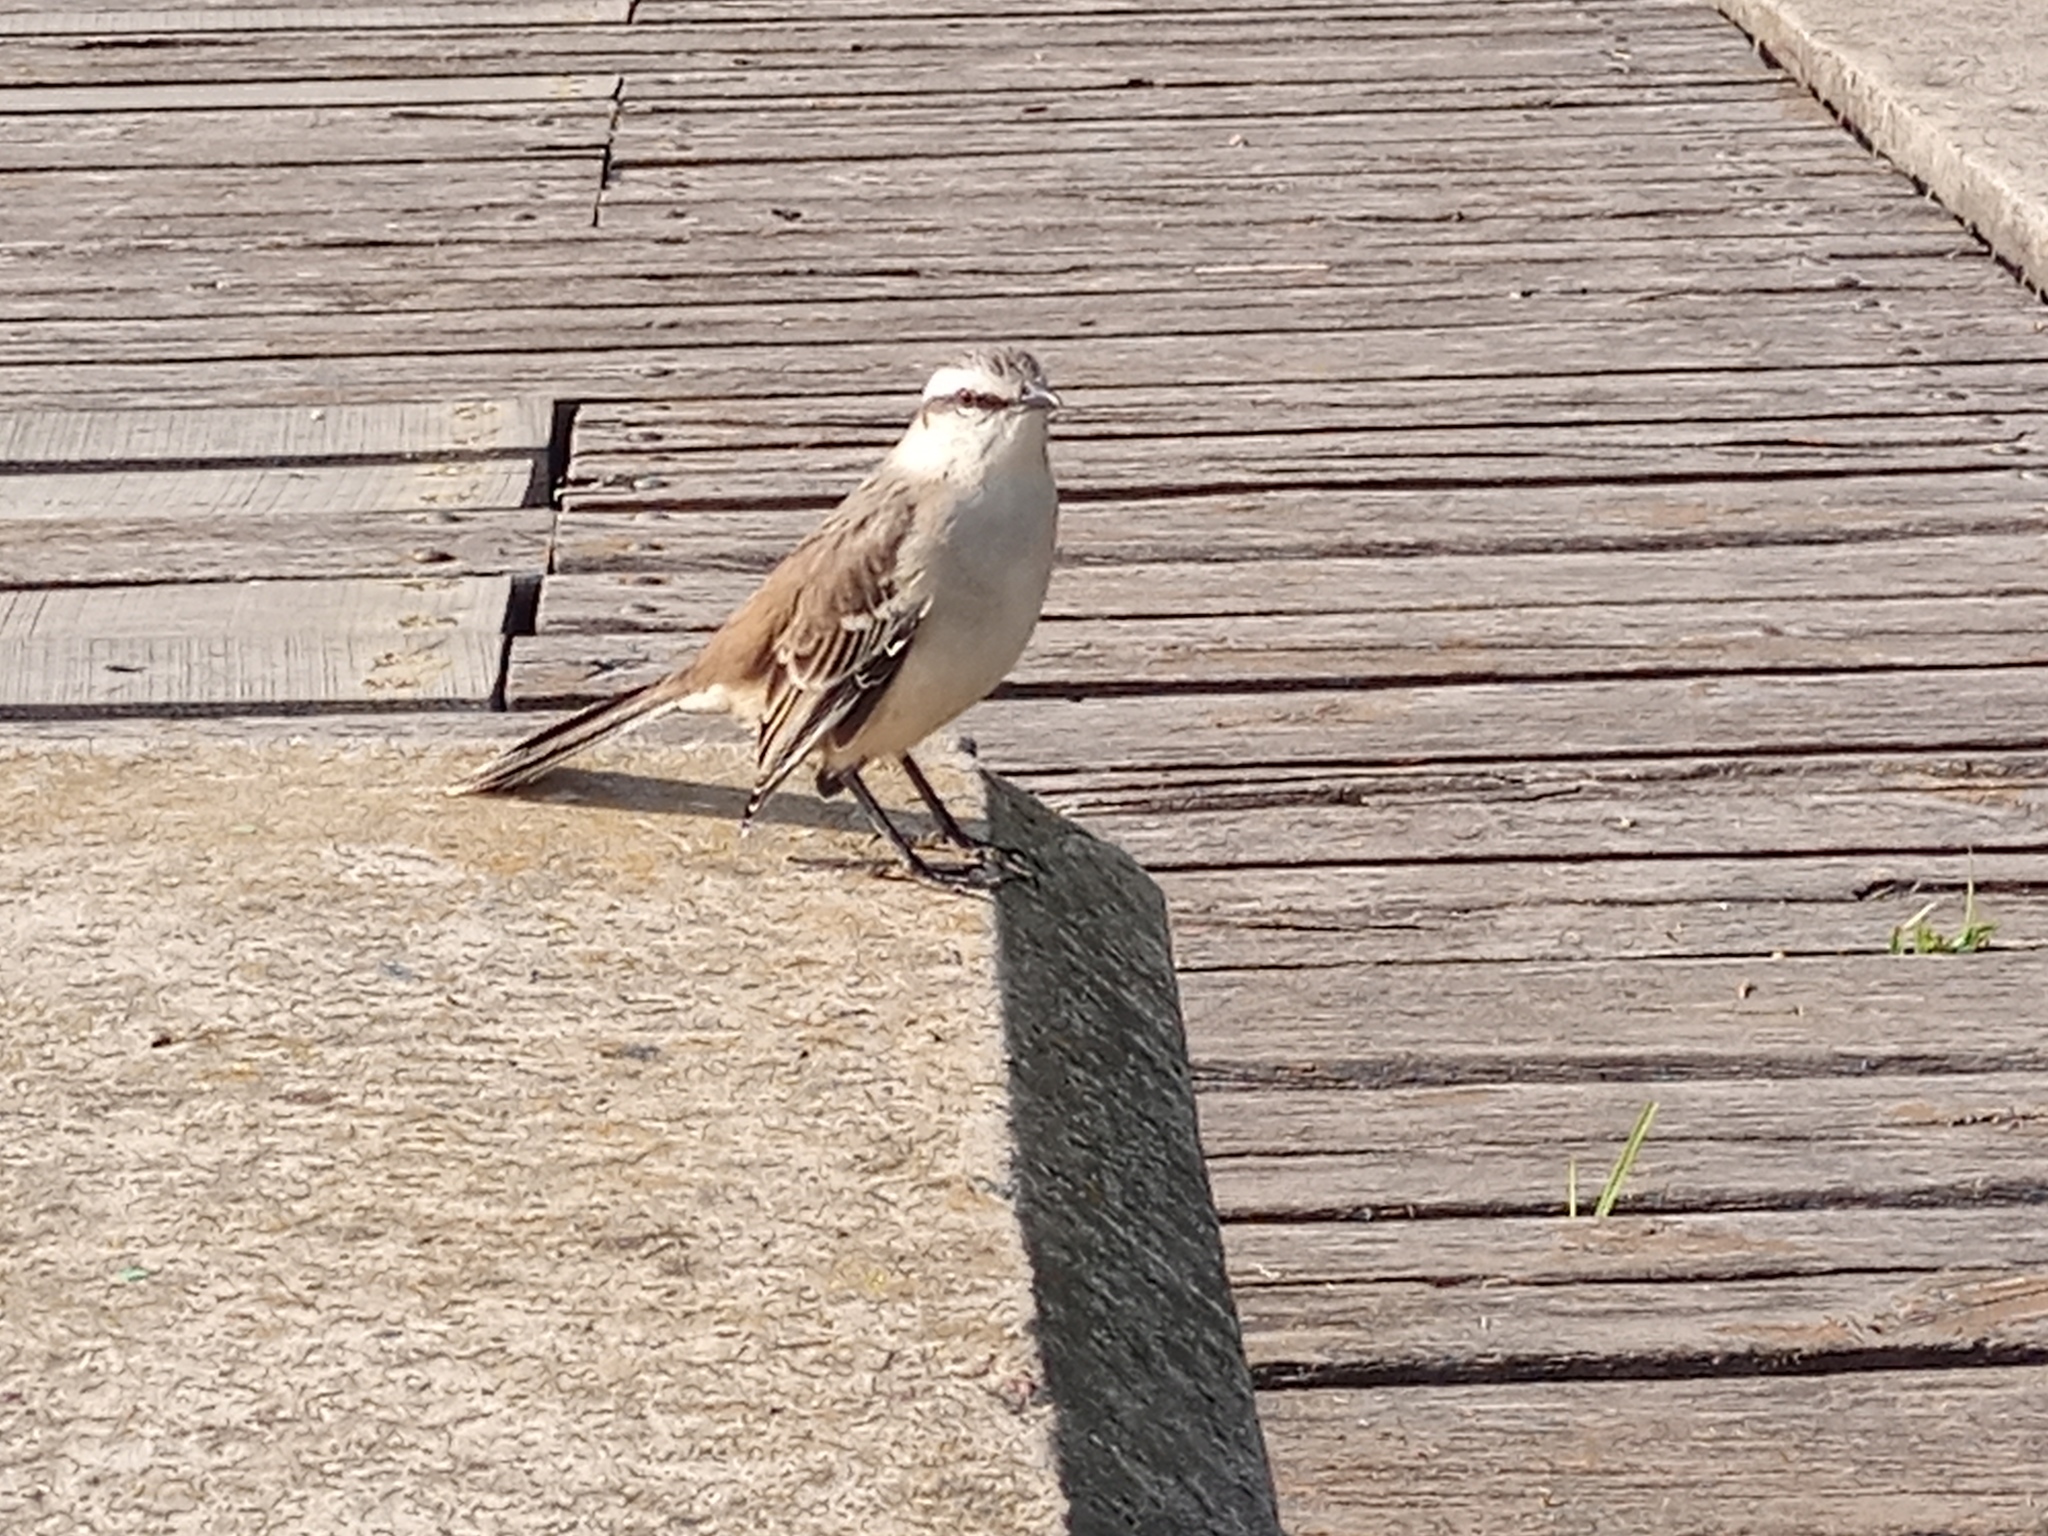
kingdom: Animalia
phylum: Chordata
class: Aves
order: Passeriformes
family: Mimidae
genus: Mimus
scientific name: Mimus saturninus
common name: Chalk-browed mockingbird
